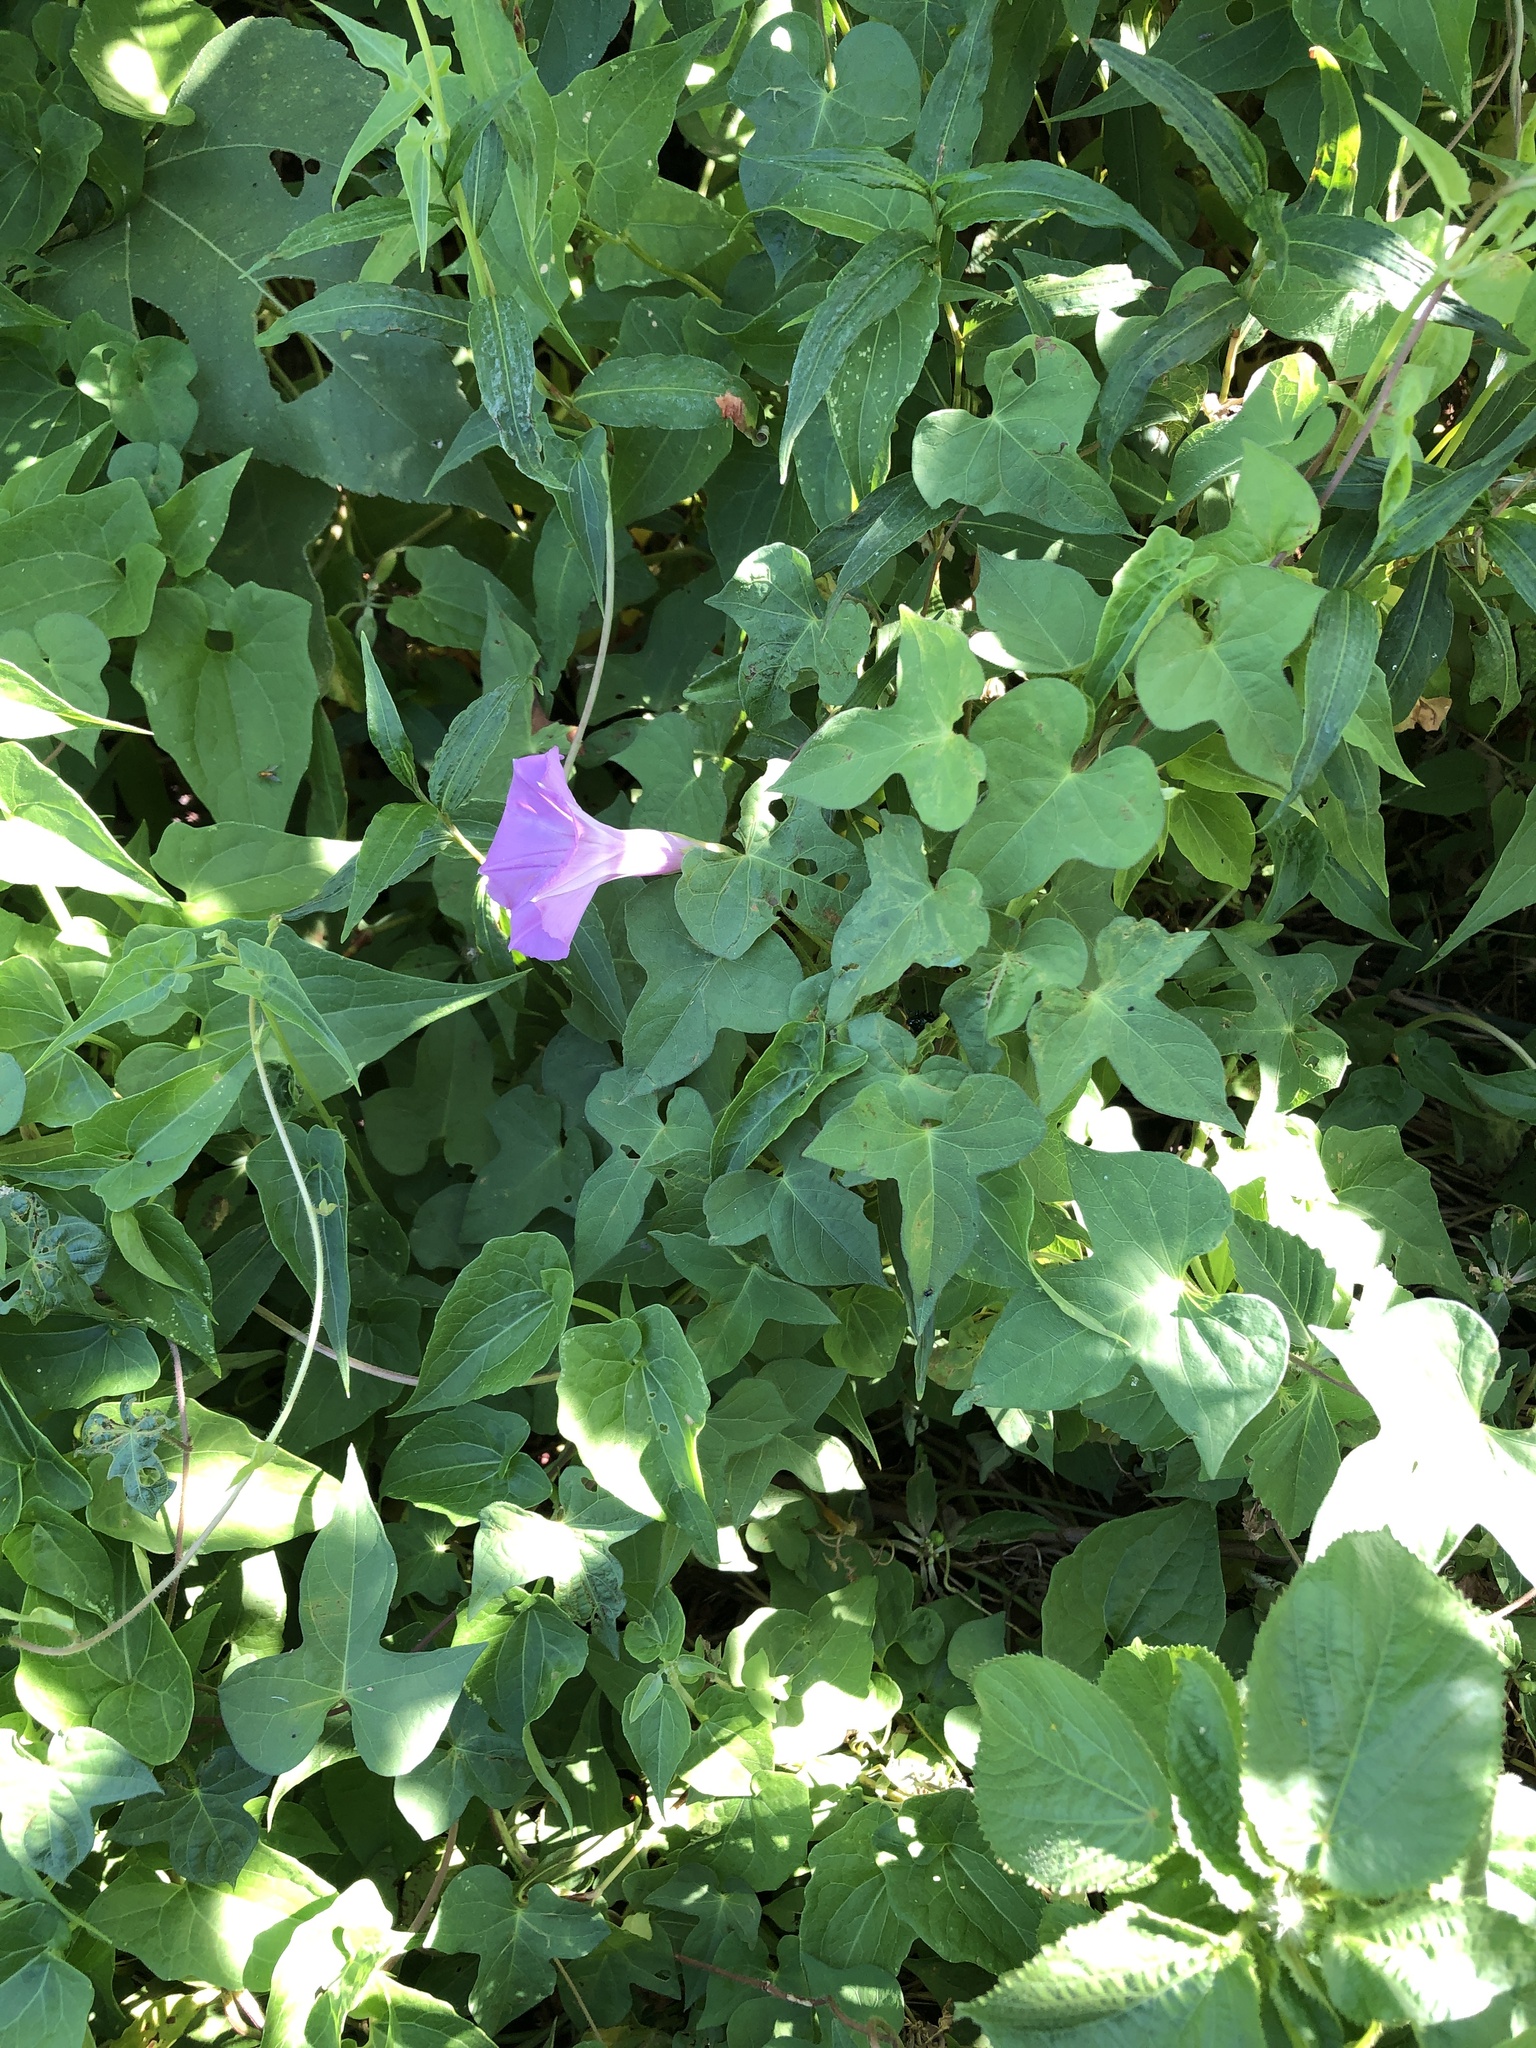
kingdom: Plantae
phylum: Tracheophyta
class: Magnoliopsida
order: Solanales
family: Convolvulaceae
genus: Ipomoea
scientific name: Ipomoea cordatotriloba
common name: Cotton morning glory
